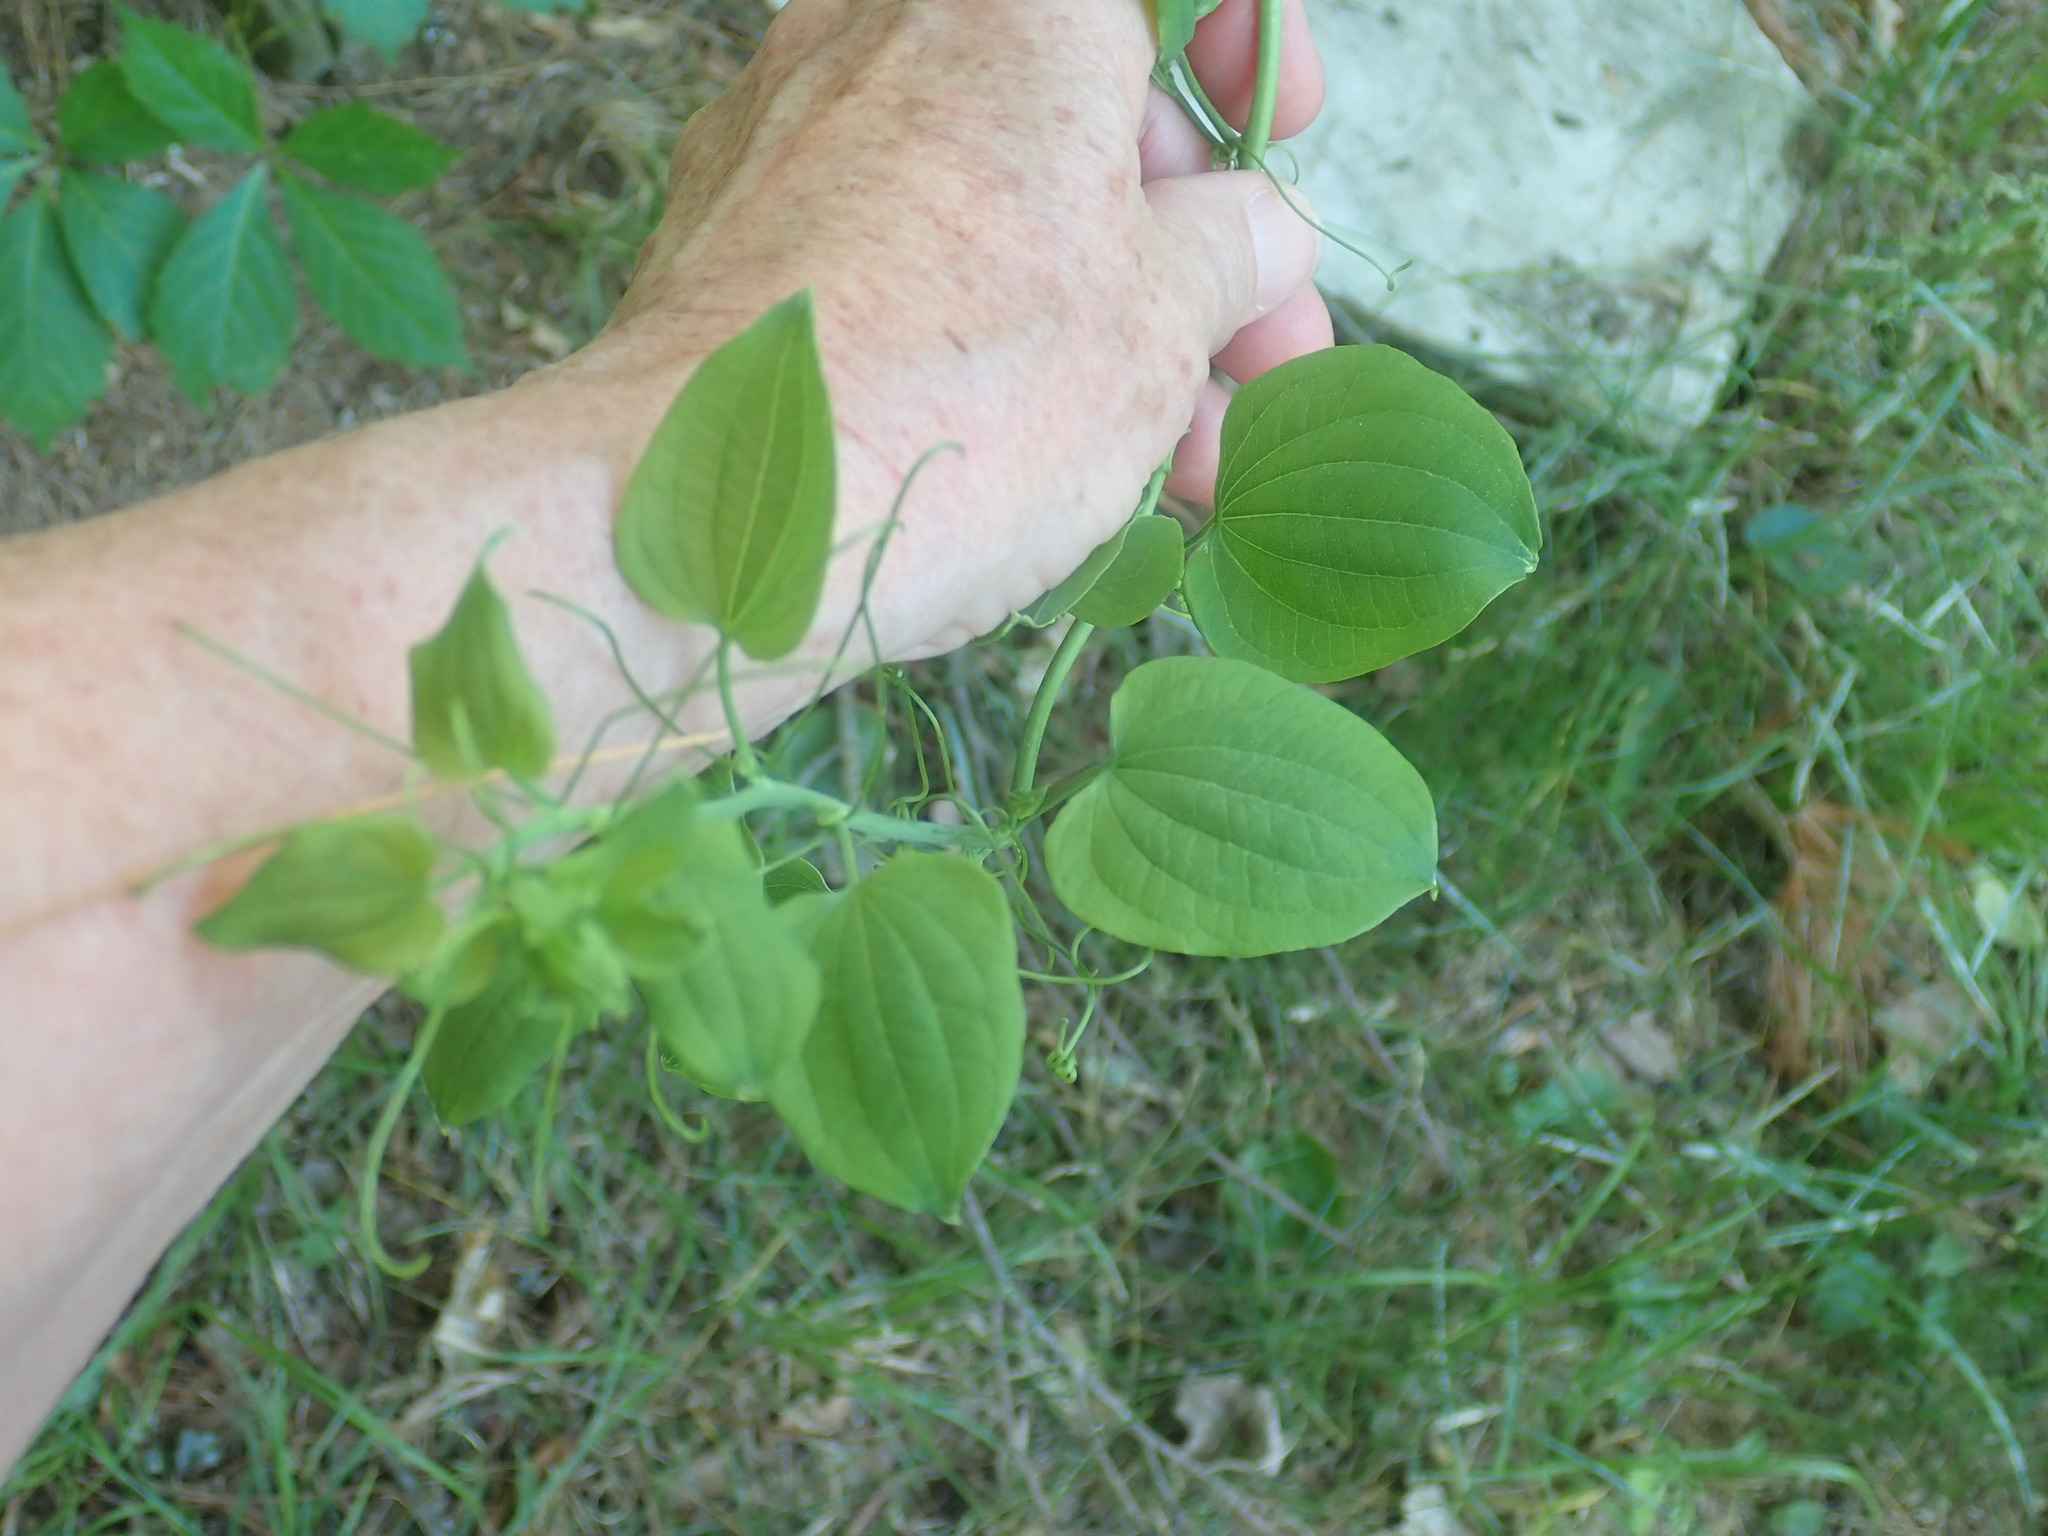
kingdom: Plantae
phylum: Tracheophyta
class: Liliopsida
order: Liliales
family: Smilacaceae
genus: Smilax
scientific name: Smilax herbacea
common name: Jacob's-ladder
